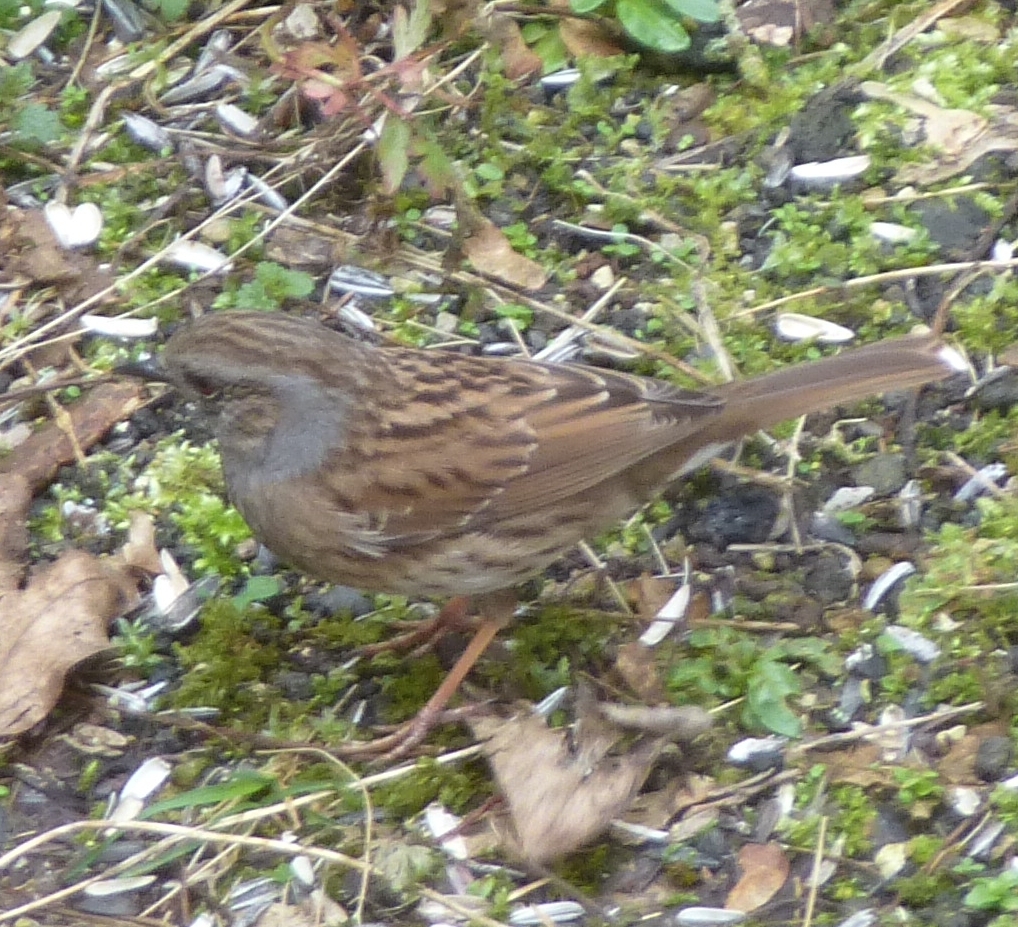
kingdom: Animalia
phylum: Chordata
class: Aves
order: Passeriformes
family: Prunellidae
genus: Prunella
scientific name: Prunella modularis
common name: Dunnock
